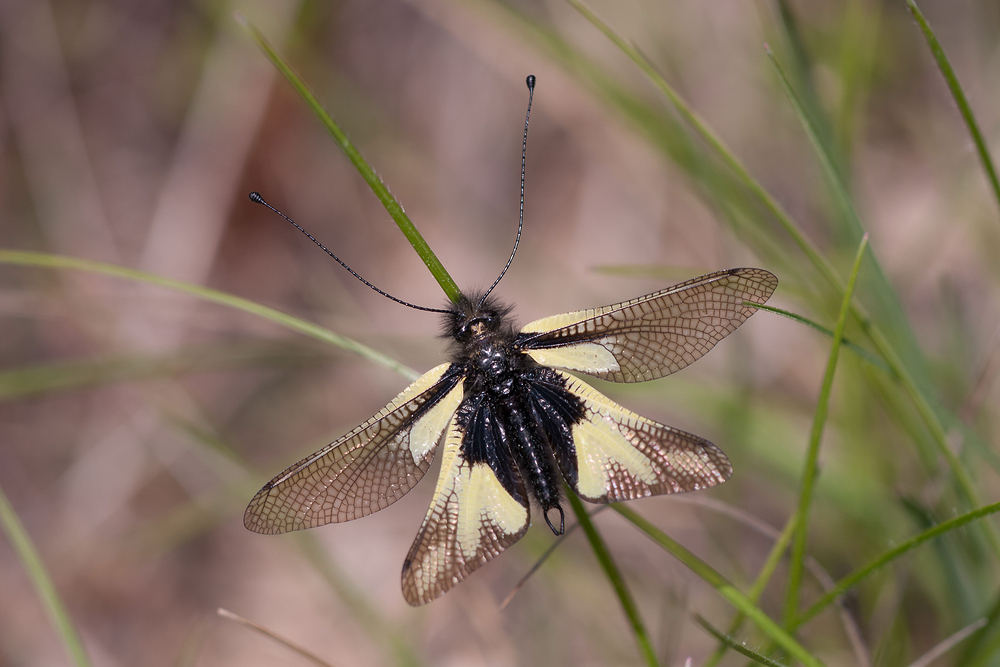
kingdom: Animalia
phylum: Arthropoda
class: Insecta
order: Neuroptera
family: Ascalaphidae
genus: Libelloides
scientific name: Libelloides coccajus
